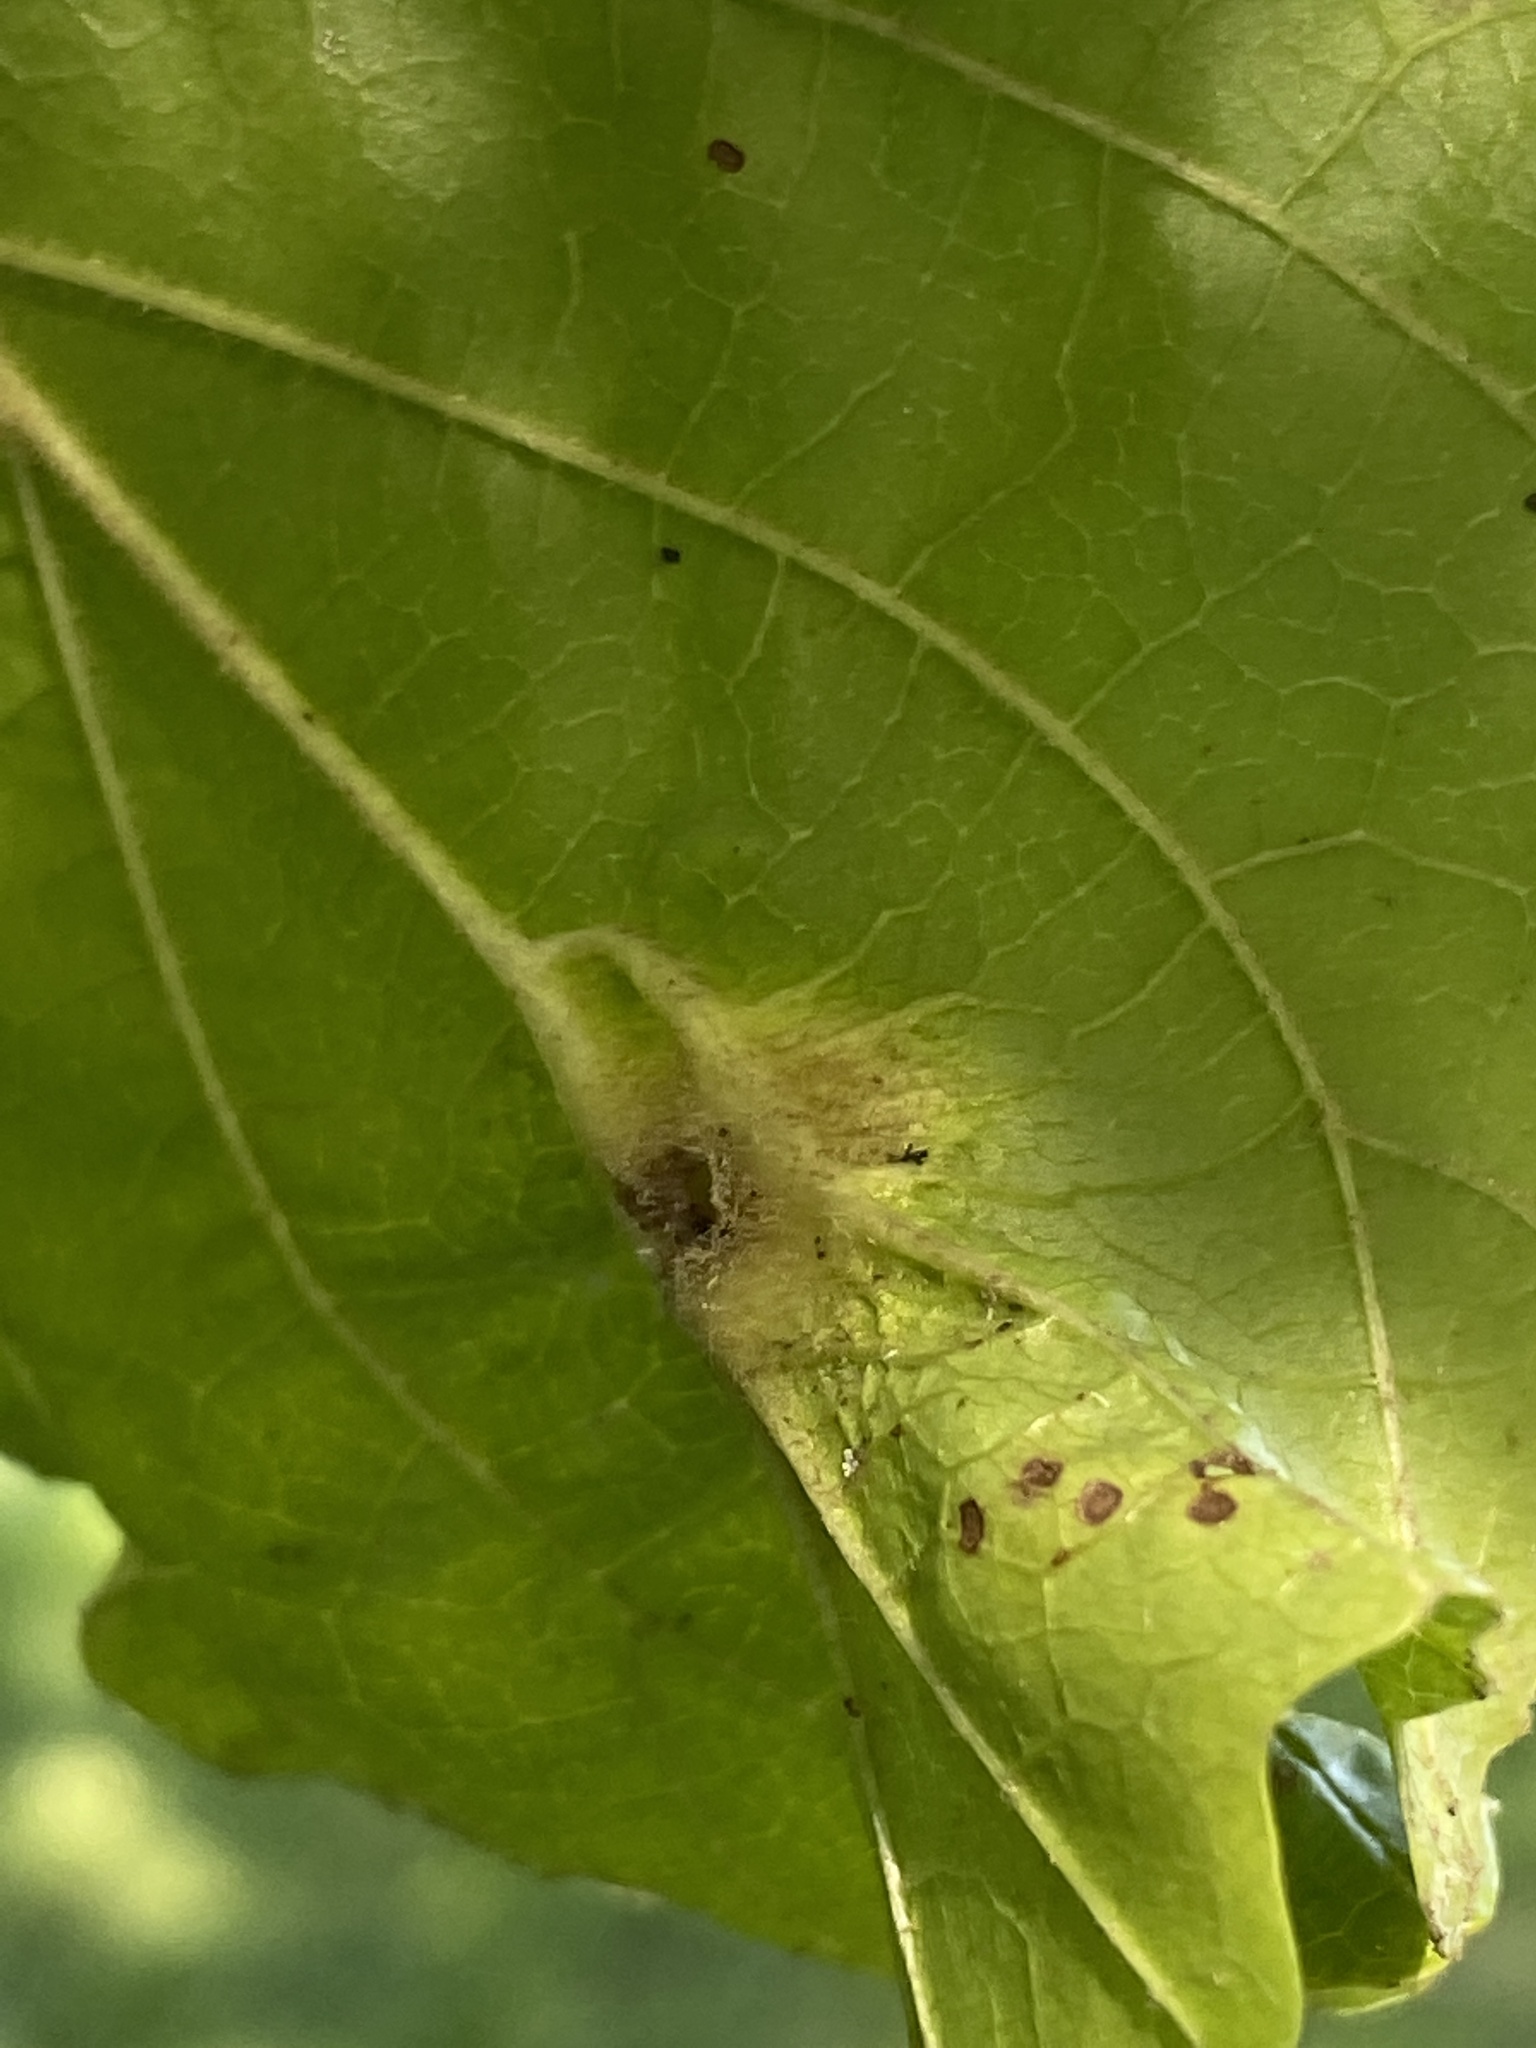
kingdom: Animalia
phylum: Arthropoda
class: Insecta
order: Hemiptera
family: Aphididae
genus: Hormaphis
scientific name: Hormaphis hamamelidis
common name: Witch-hazel cone gall aphid
